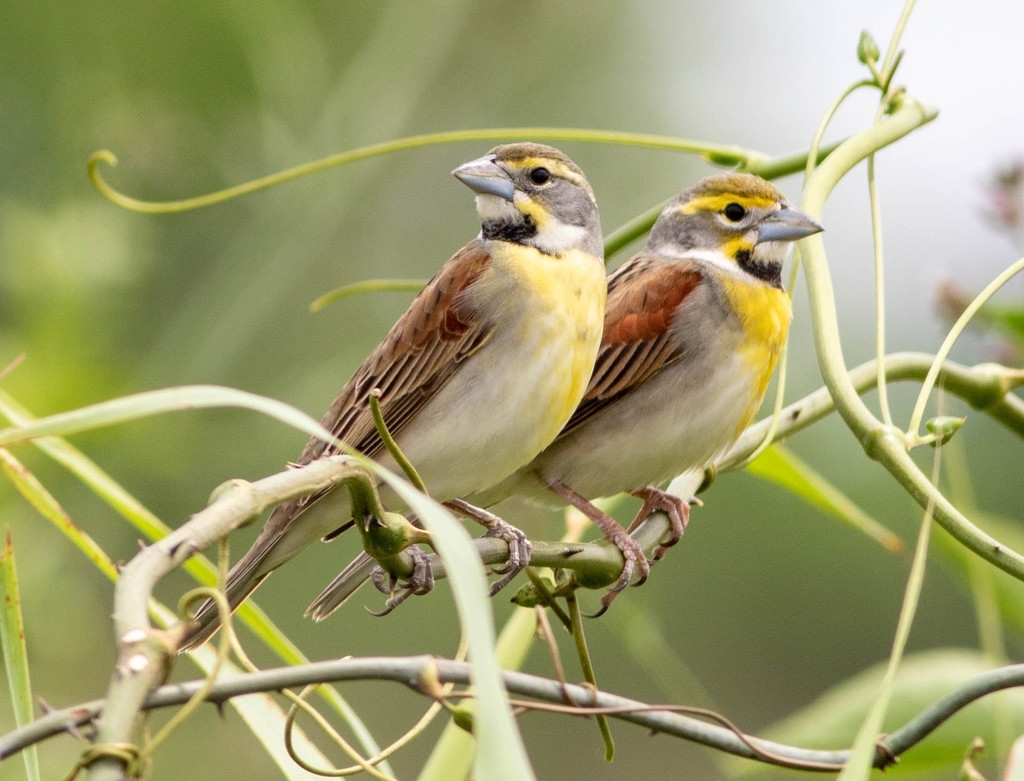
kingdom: Animalia
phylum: Chordata
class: Aves
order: Passeriformes
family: Cardinalidae
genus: Spiza
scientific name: Spiza americana
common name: Dickcissel
